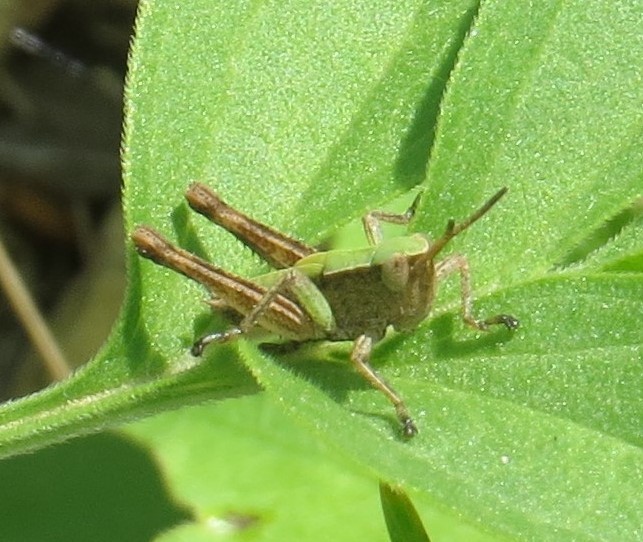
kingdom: Animalia
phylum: Arthropoda
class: Insecta
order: Orthoptera
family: Acrididae
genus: Dichromorpha
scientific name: Dichromorpha viridis
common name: Short-winged green grasshopper
